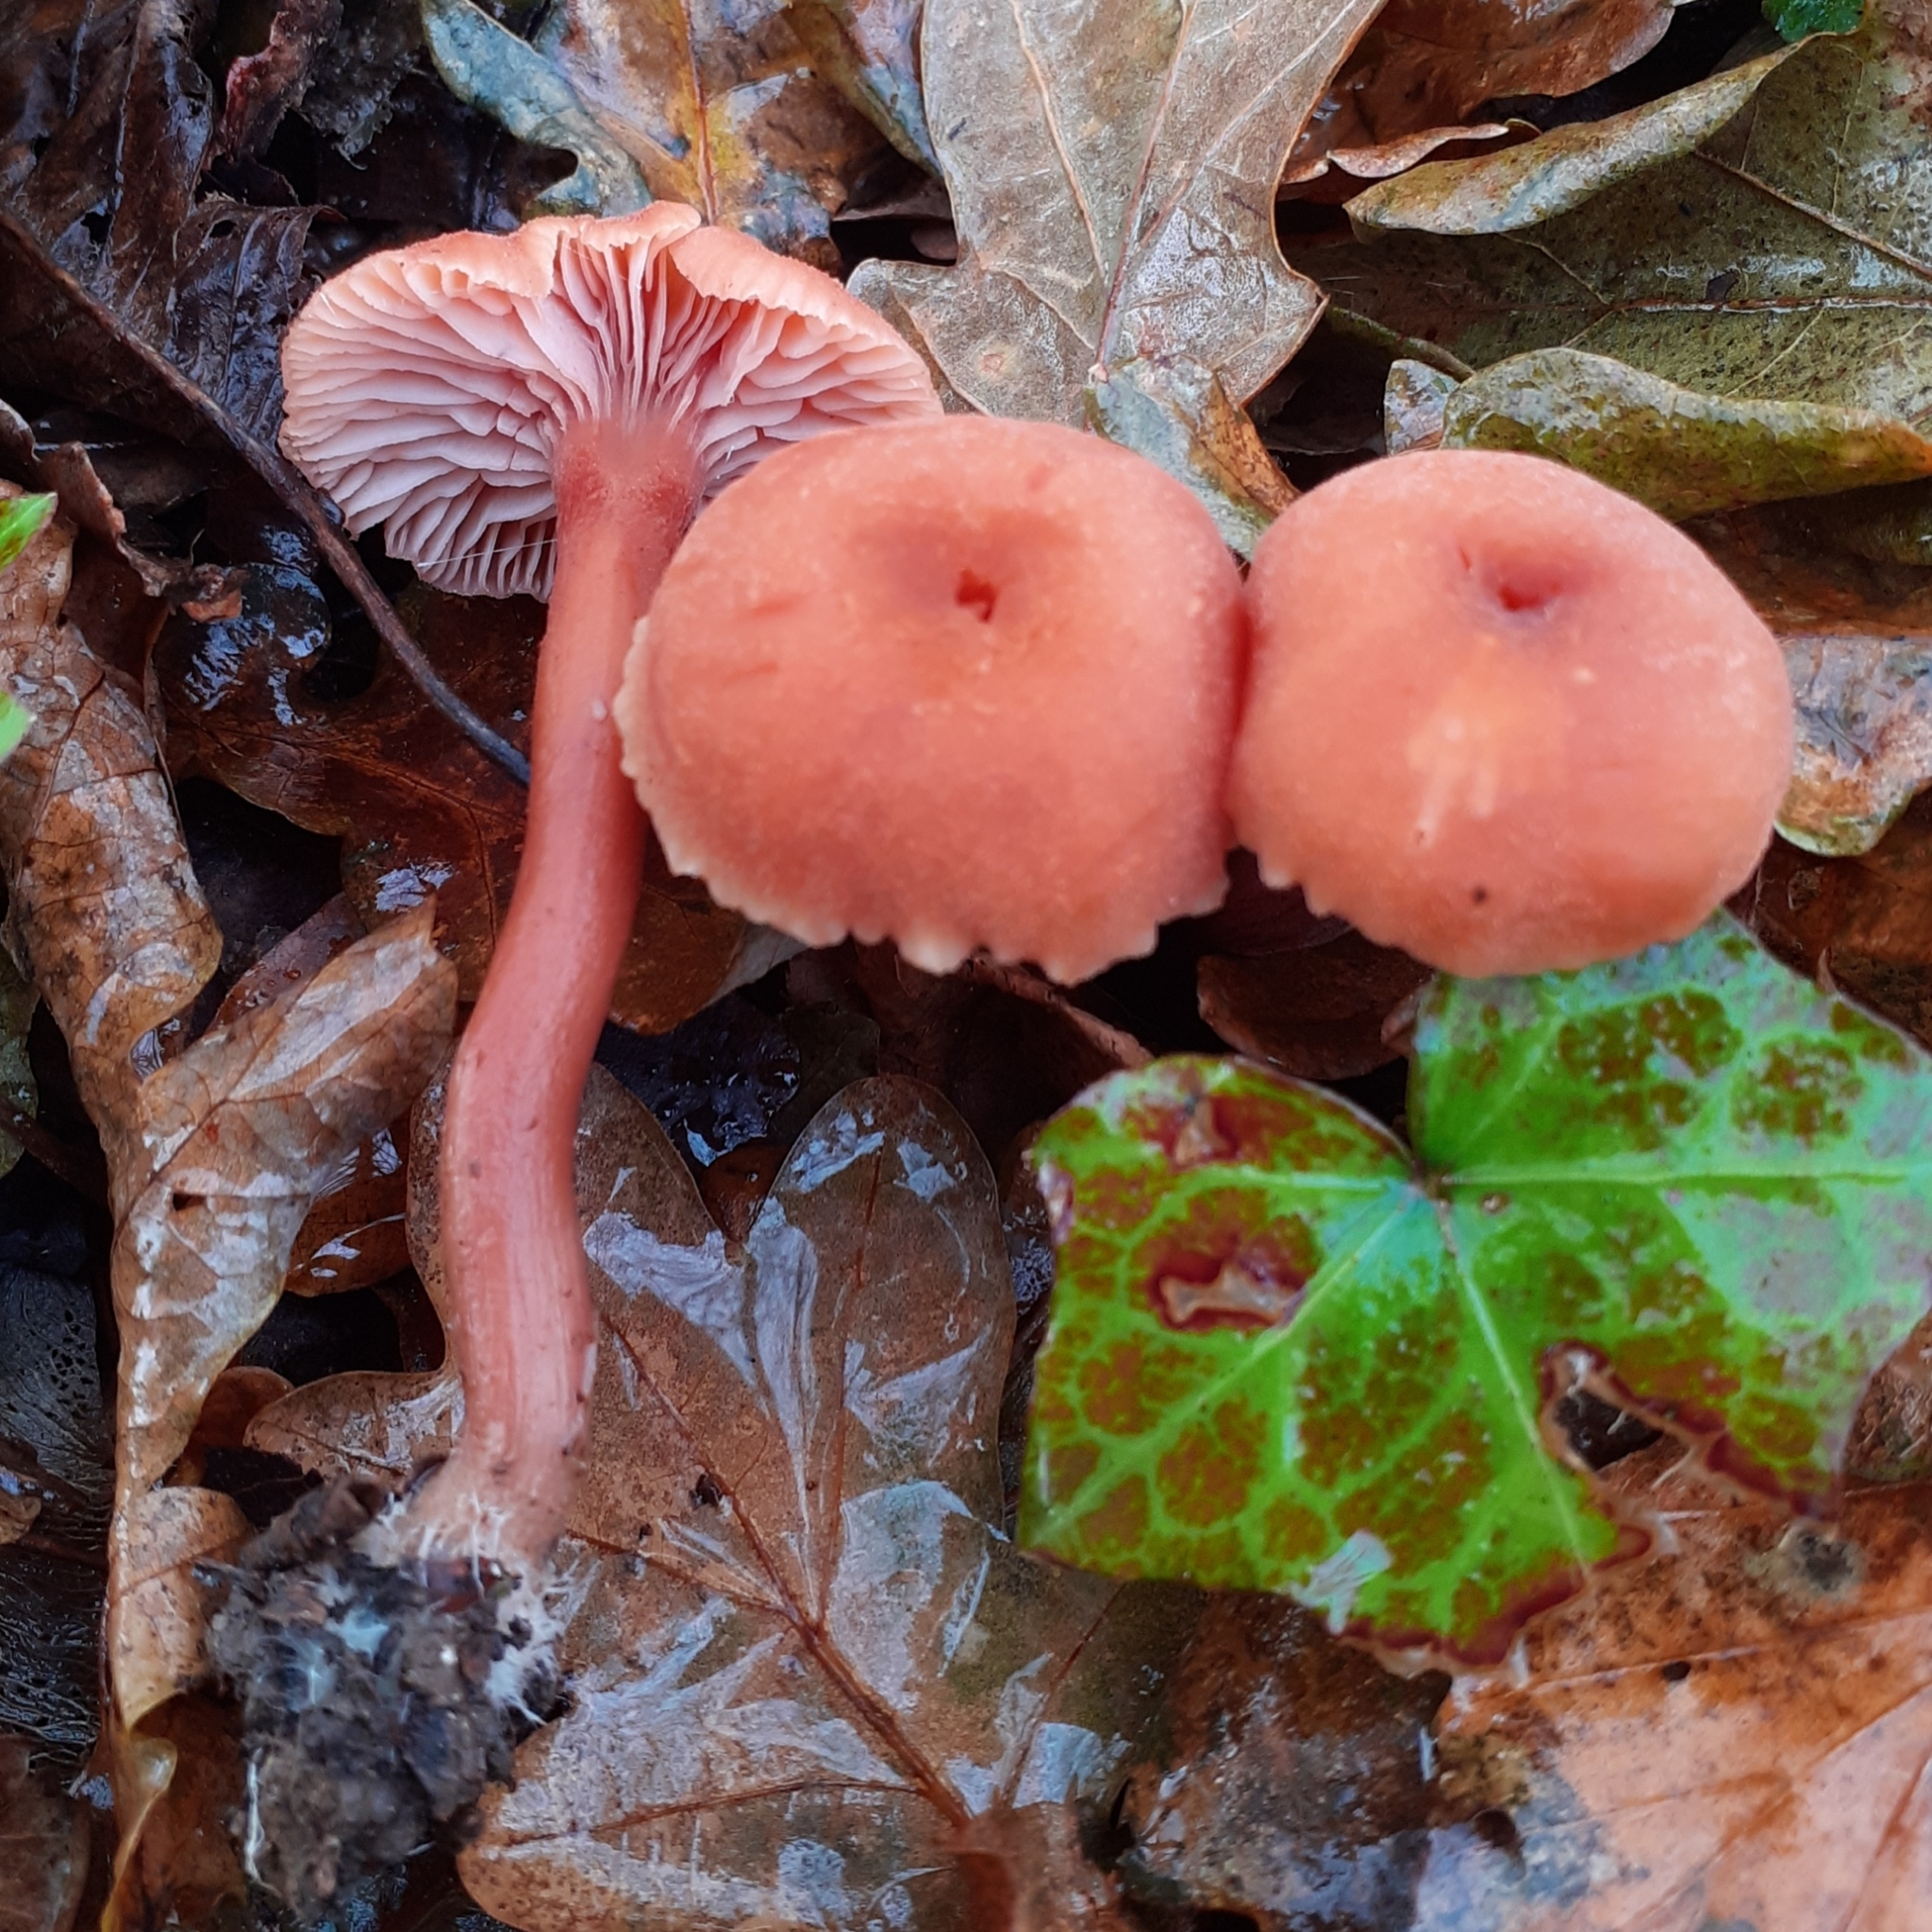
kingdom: Fungi
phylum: Basidiomycota
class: Agaricomycetes
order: Agaricales
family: Hydnangiaceae
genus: Laccaria
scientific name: Laccaria laccata
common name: Deceiver
